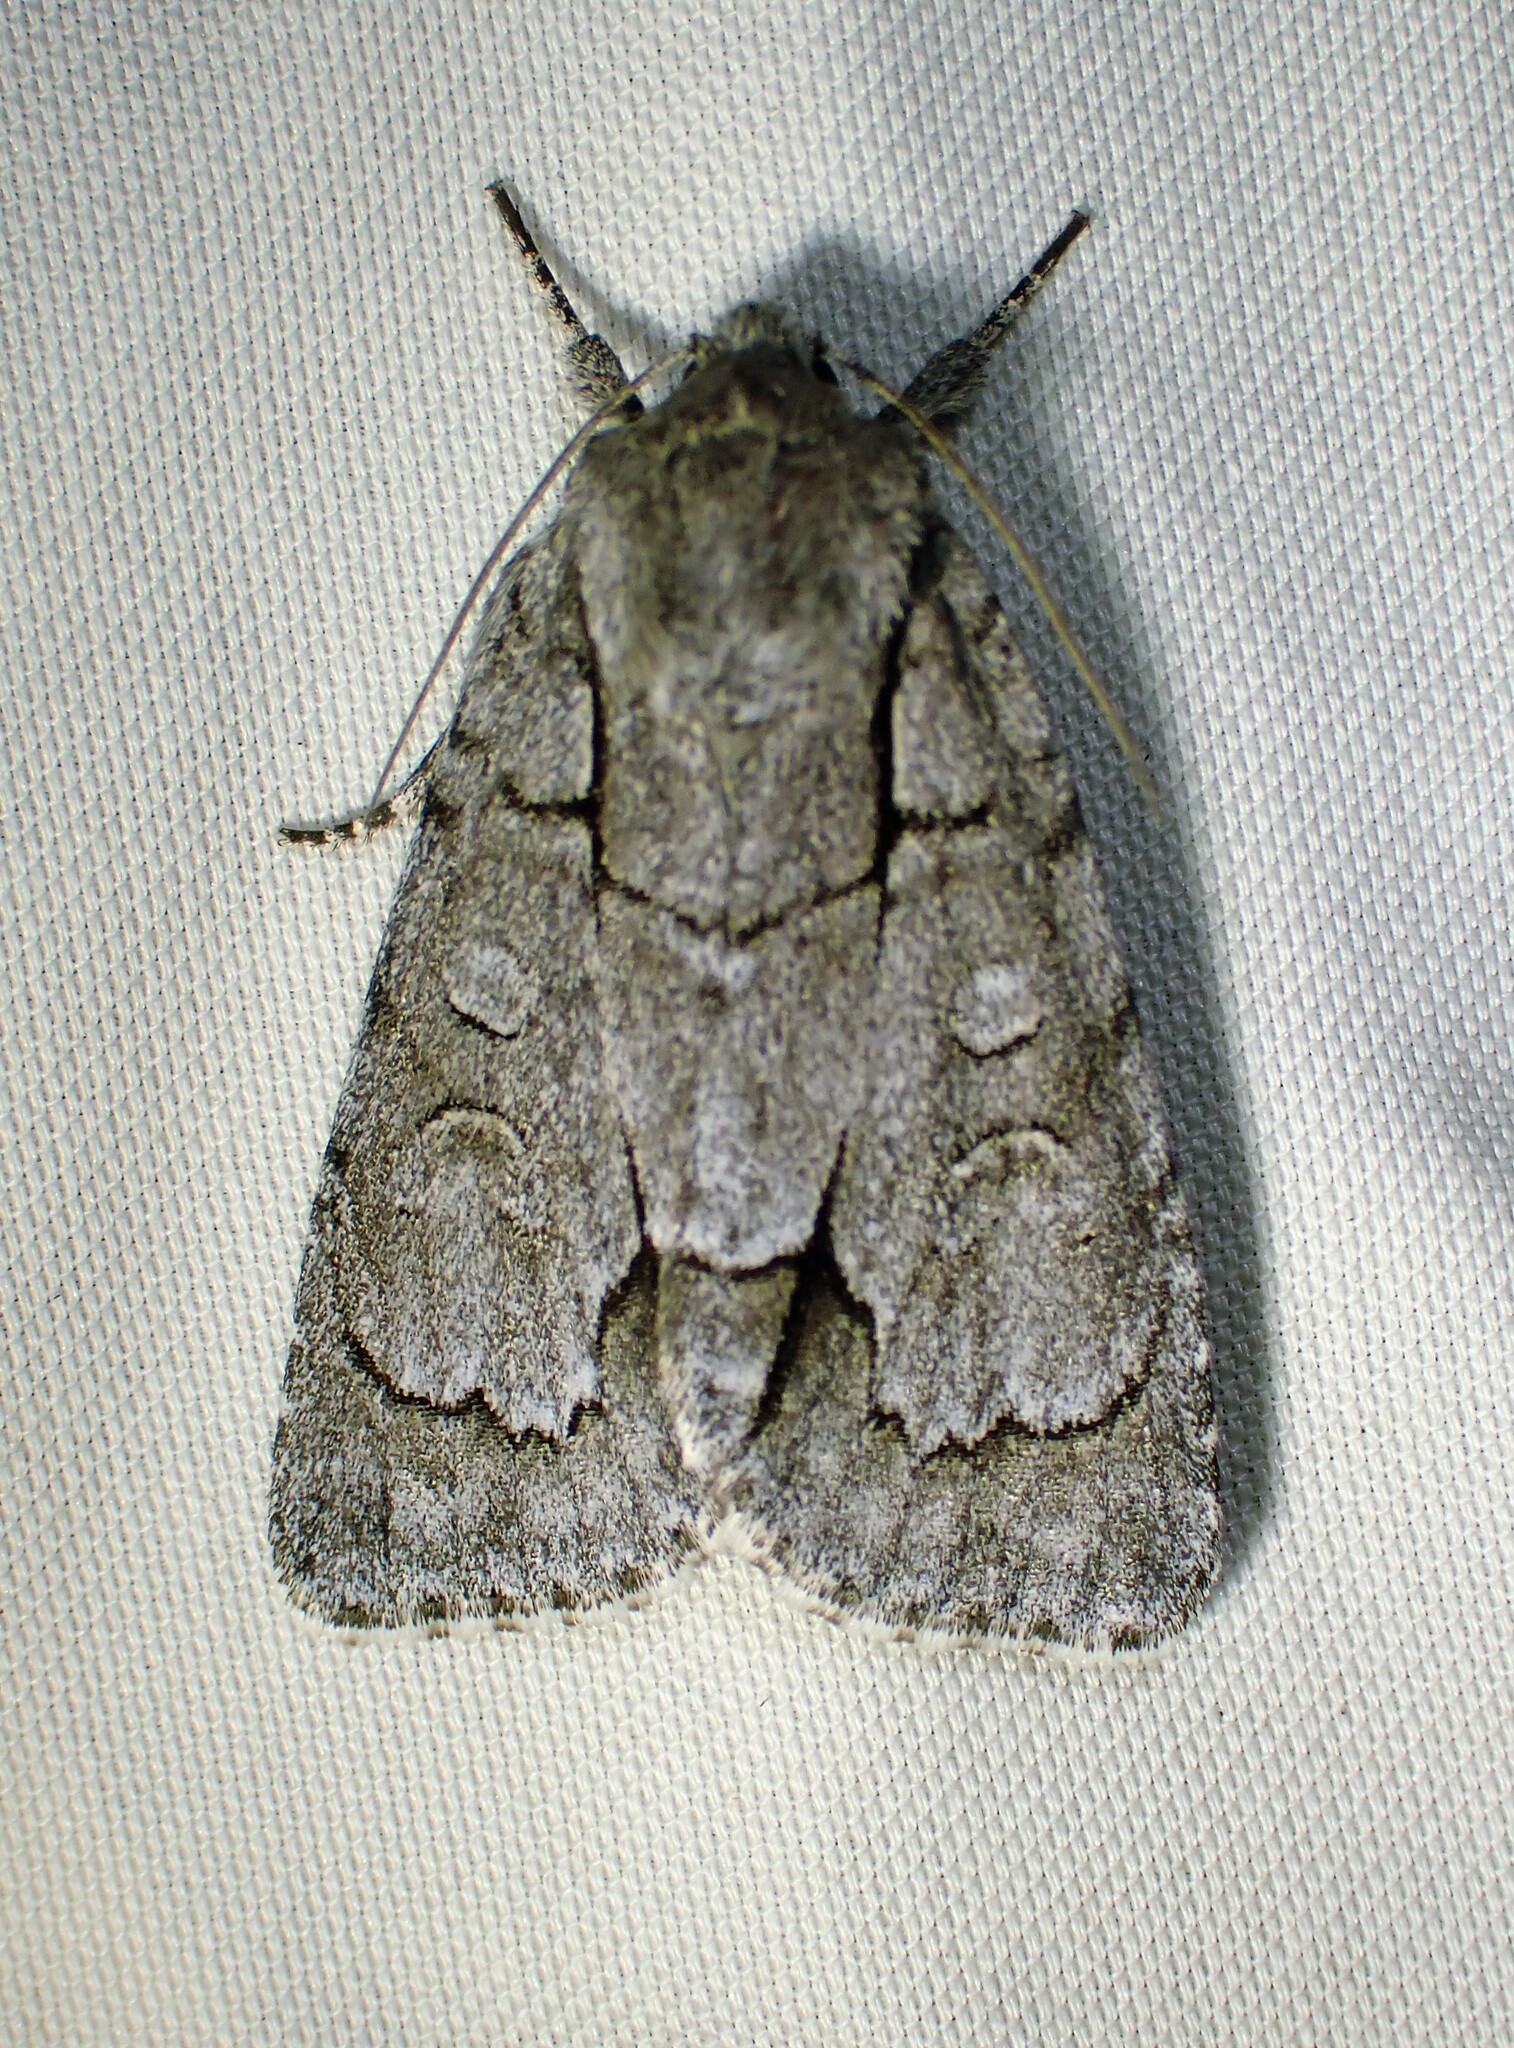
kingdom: Animalia
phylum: Arthropoda
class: Insecta
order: Lepidoptera
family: Noctuidae
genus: Acronicta
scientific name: Acronicta radcliffei
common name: Radcliffe's dagger
